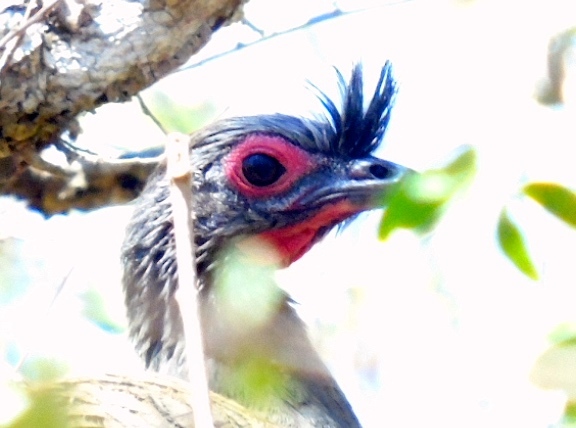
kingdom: Animalia
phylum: Chordata
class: Aves
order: Galliformes
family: Cracidae
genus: Ortalis
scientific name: Ortalis wagleri
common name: Rufous-bellied chachalaca
